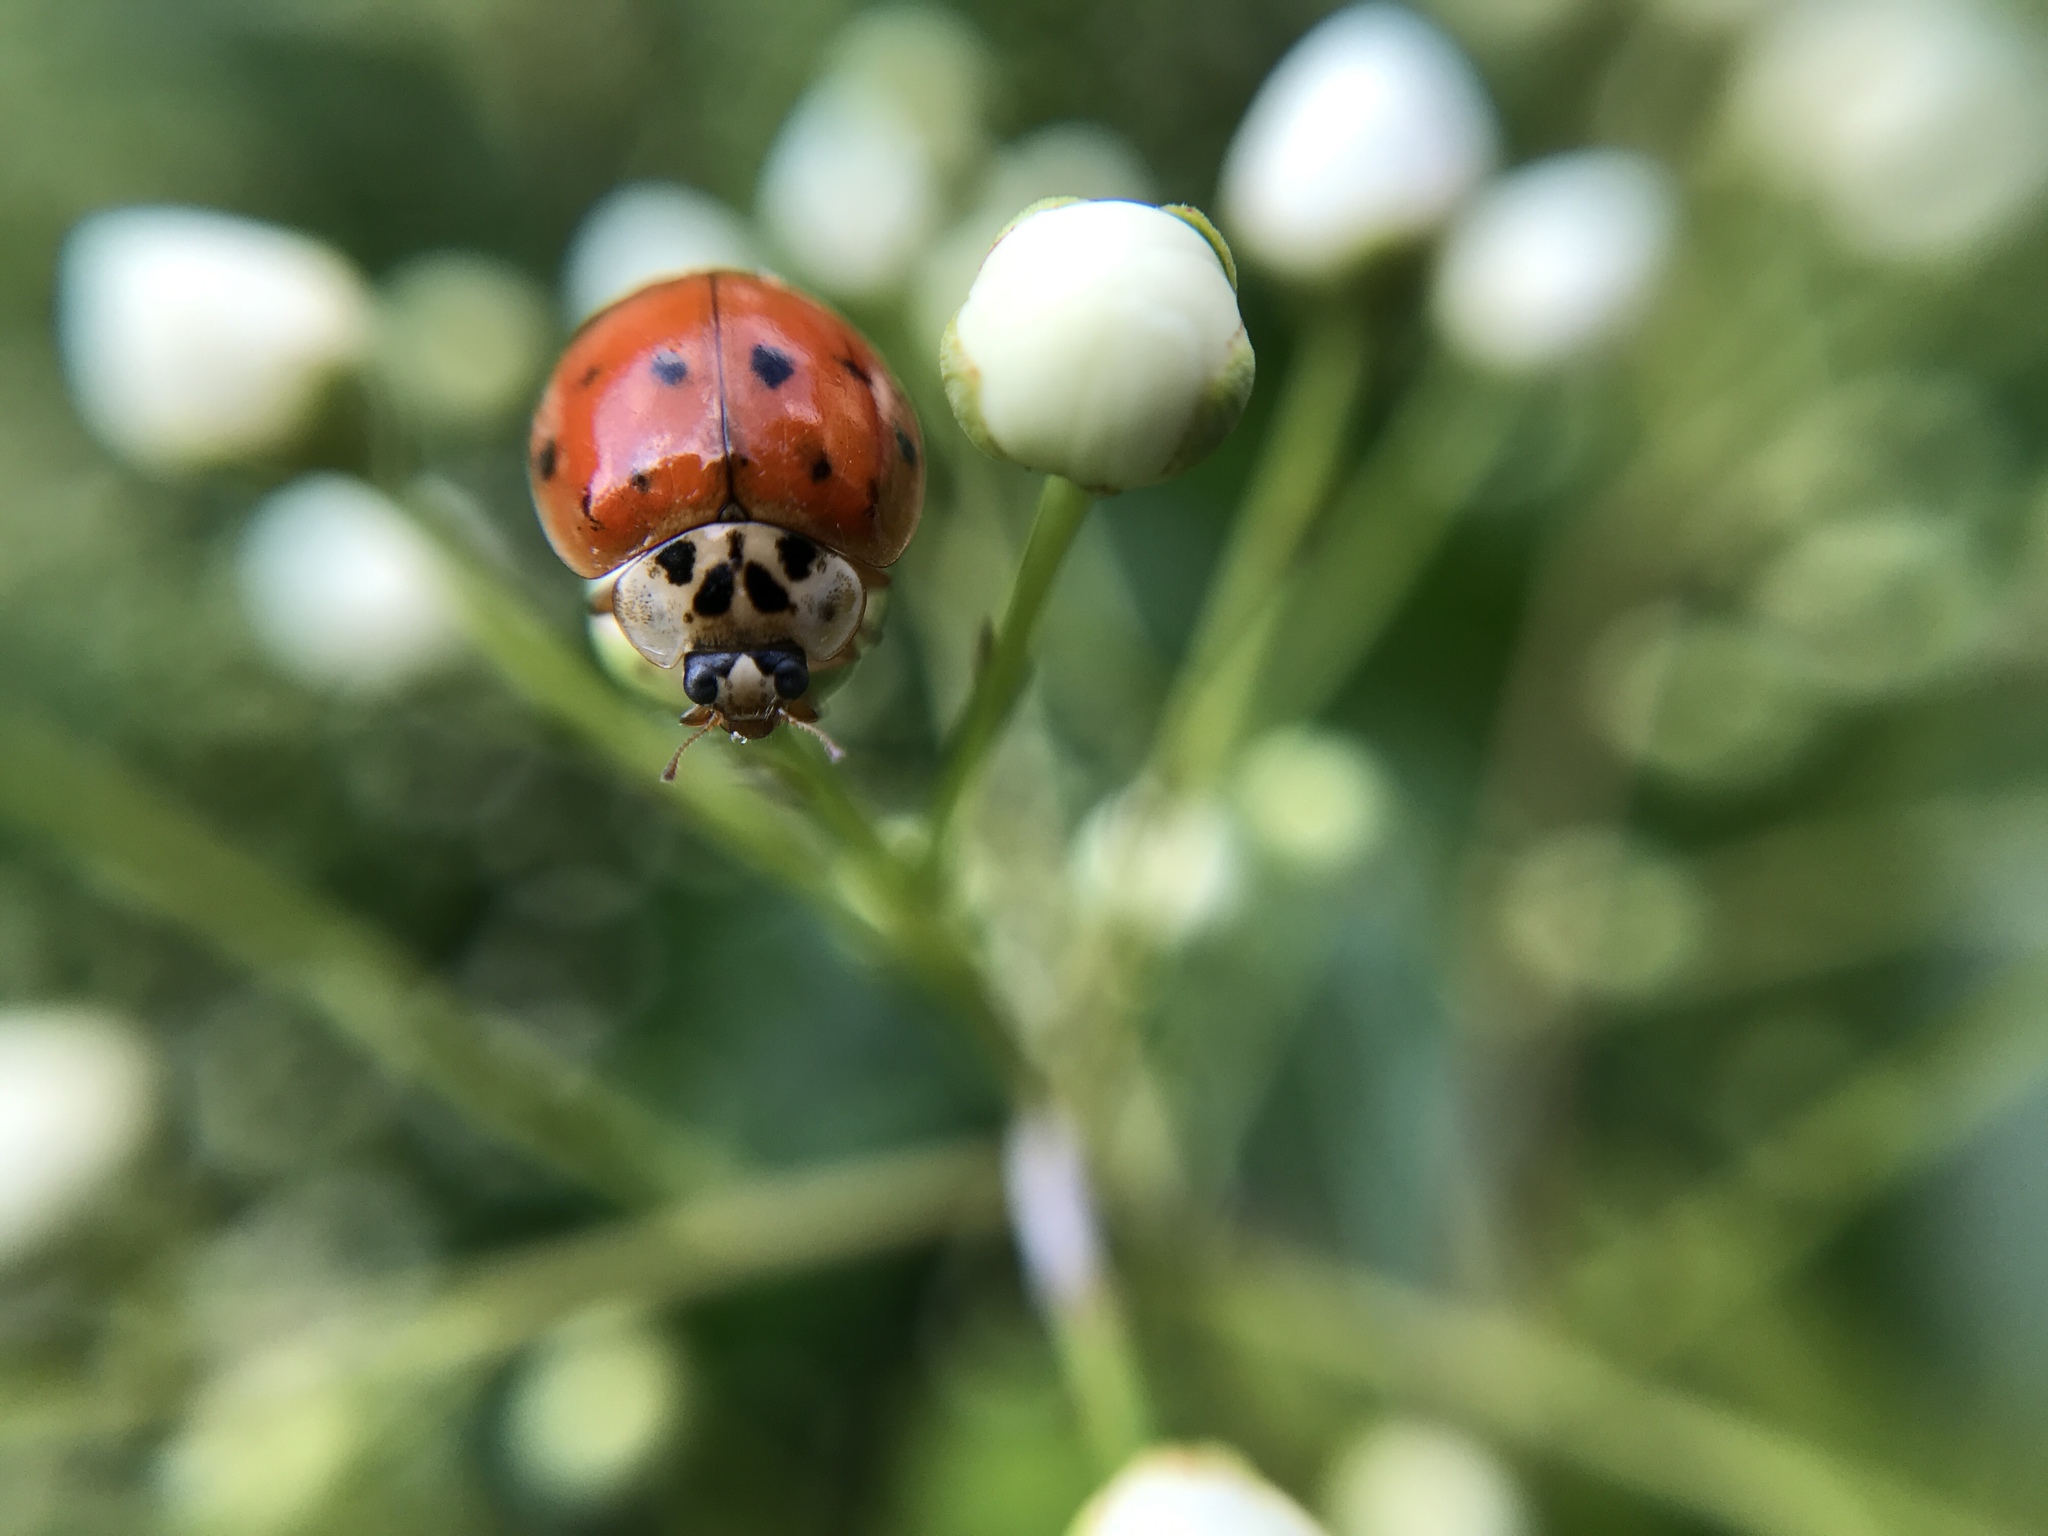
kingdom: Animalia
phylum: Arthropoda
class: Insecta
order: Coleoptera
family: Coccinellidae
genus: Harmonia
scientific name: Harmonia axyridis
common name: Harlequin ladybird
